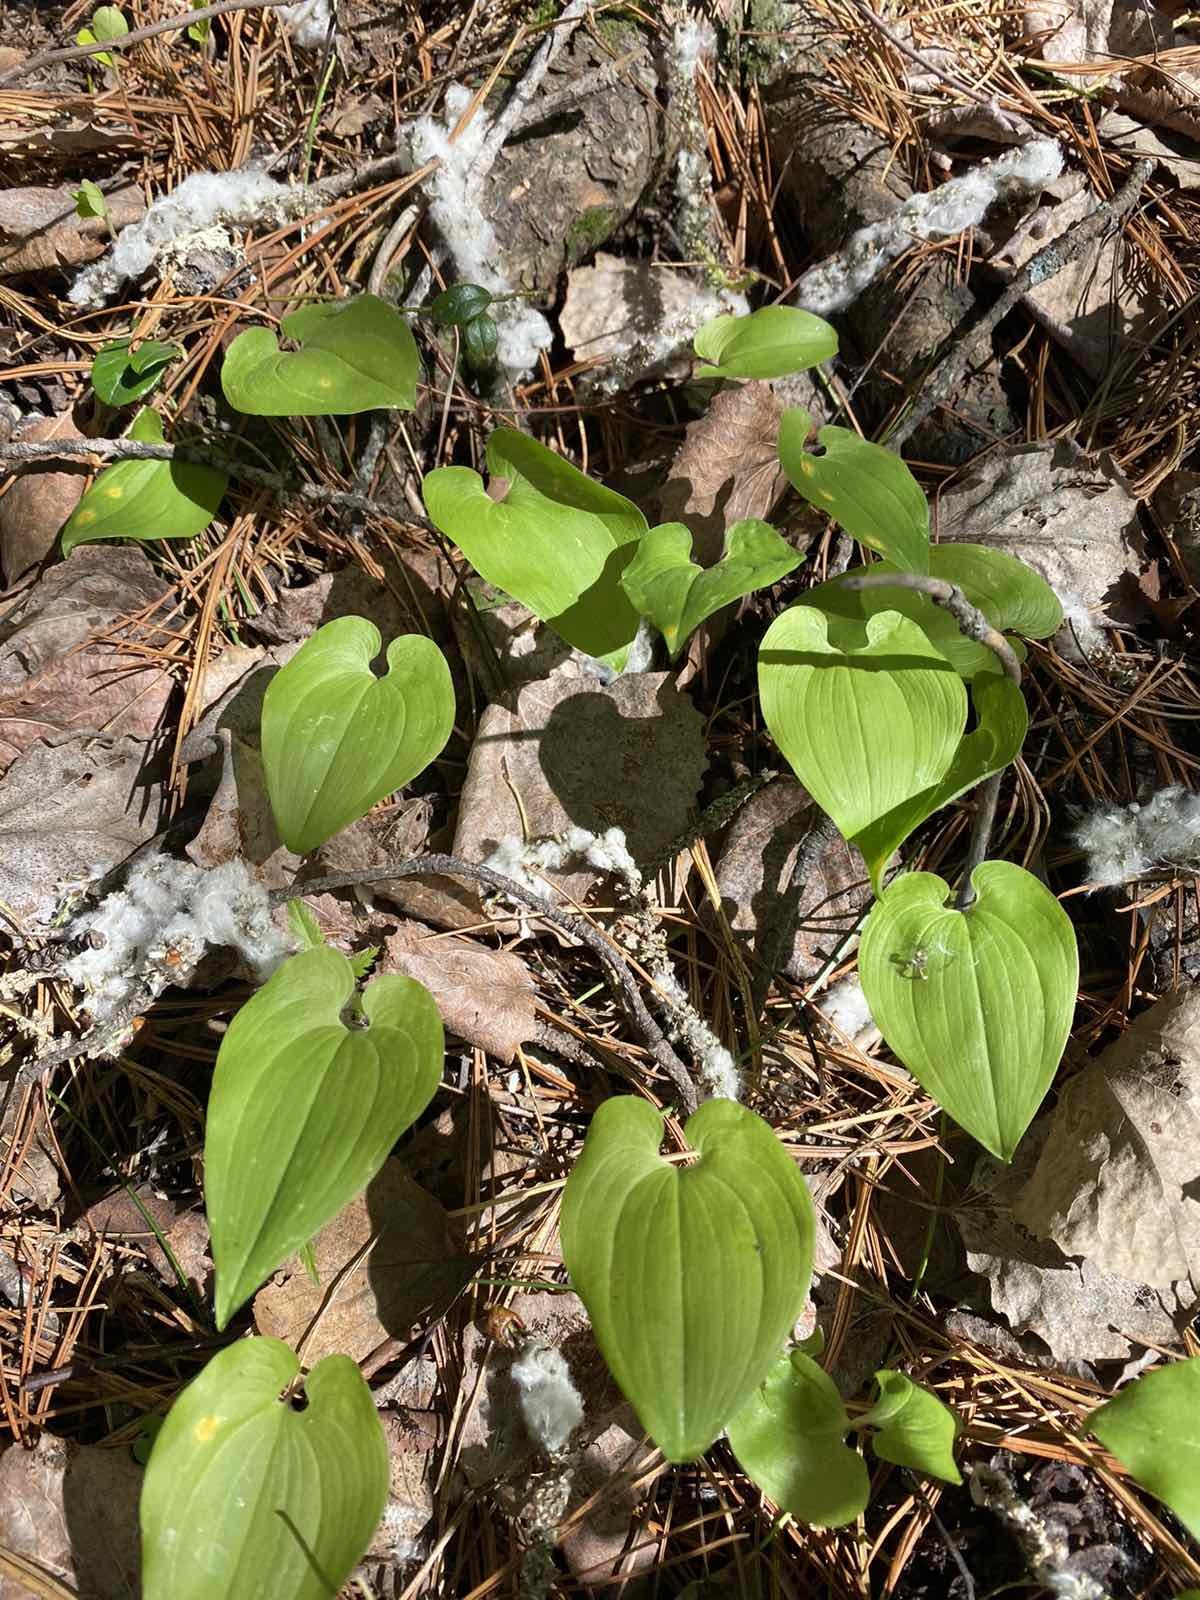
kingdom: Plantae
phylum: Tracheophyta
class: Liliopsida
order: Asparagales
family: Asparagaceae
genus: Maianthemum
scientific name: Maianthemum bifolium
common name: May lily
